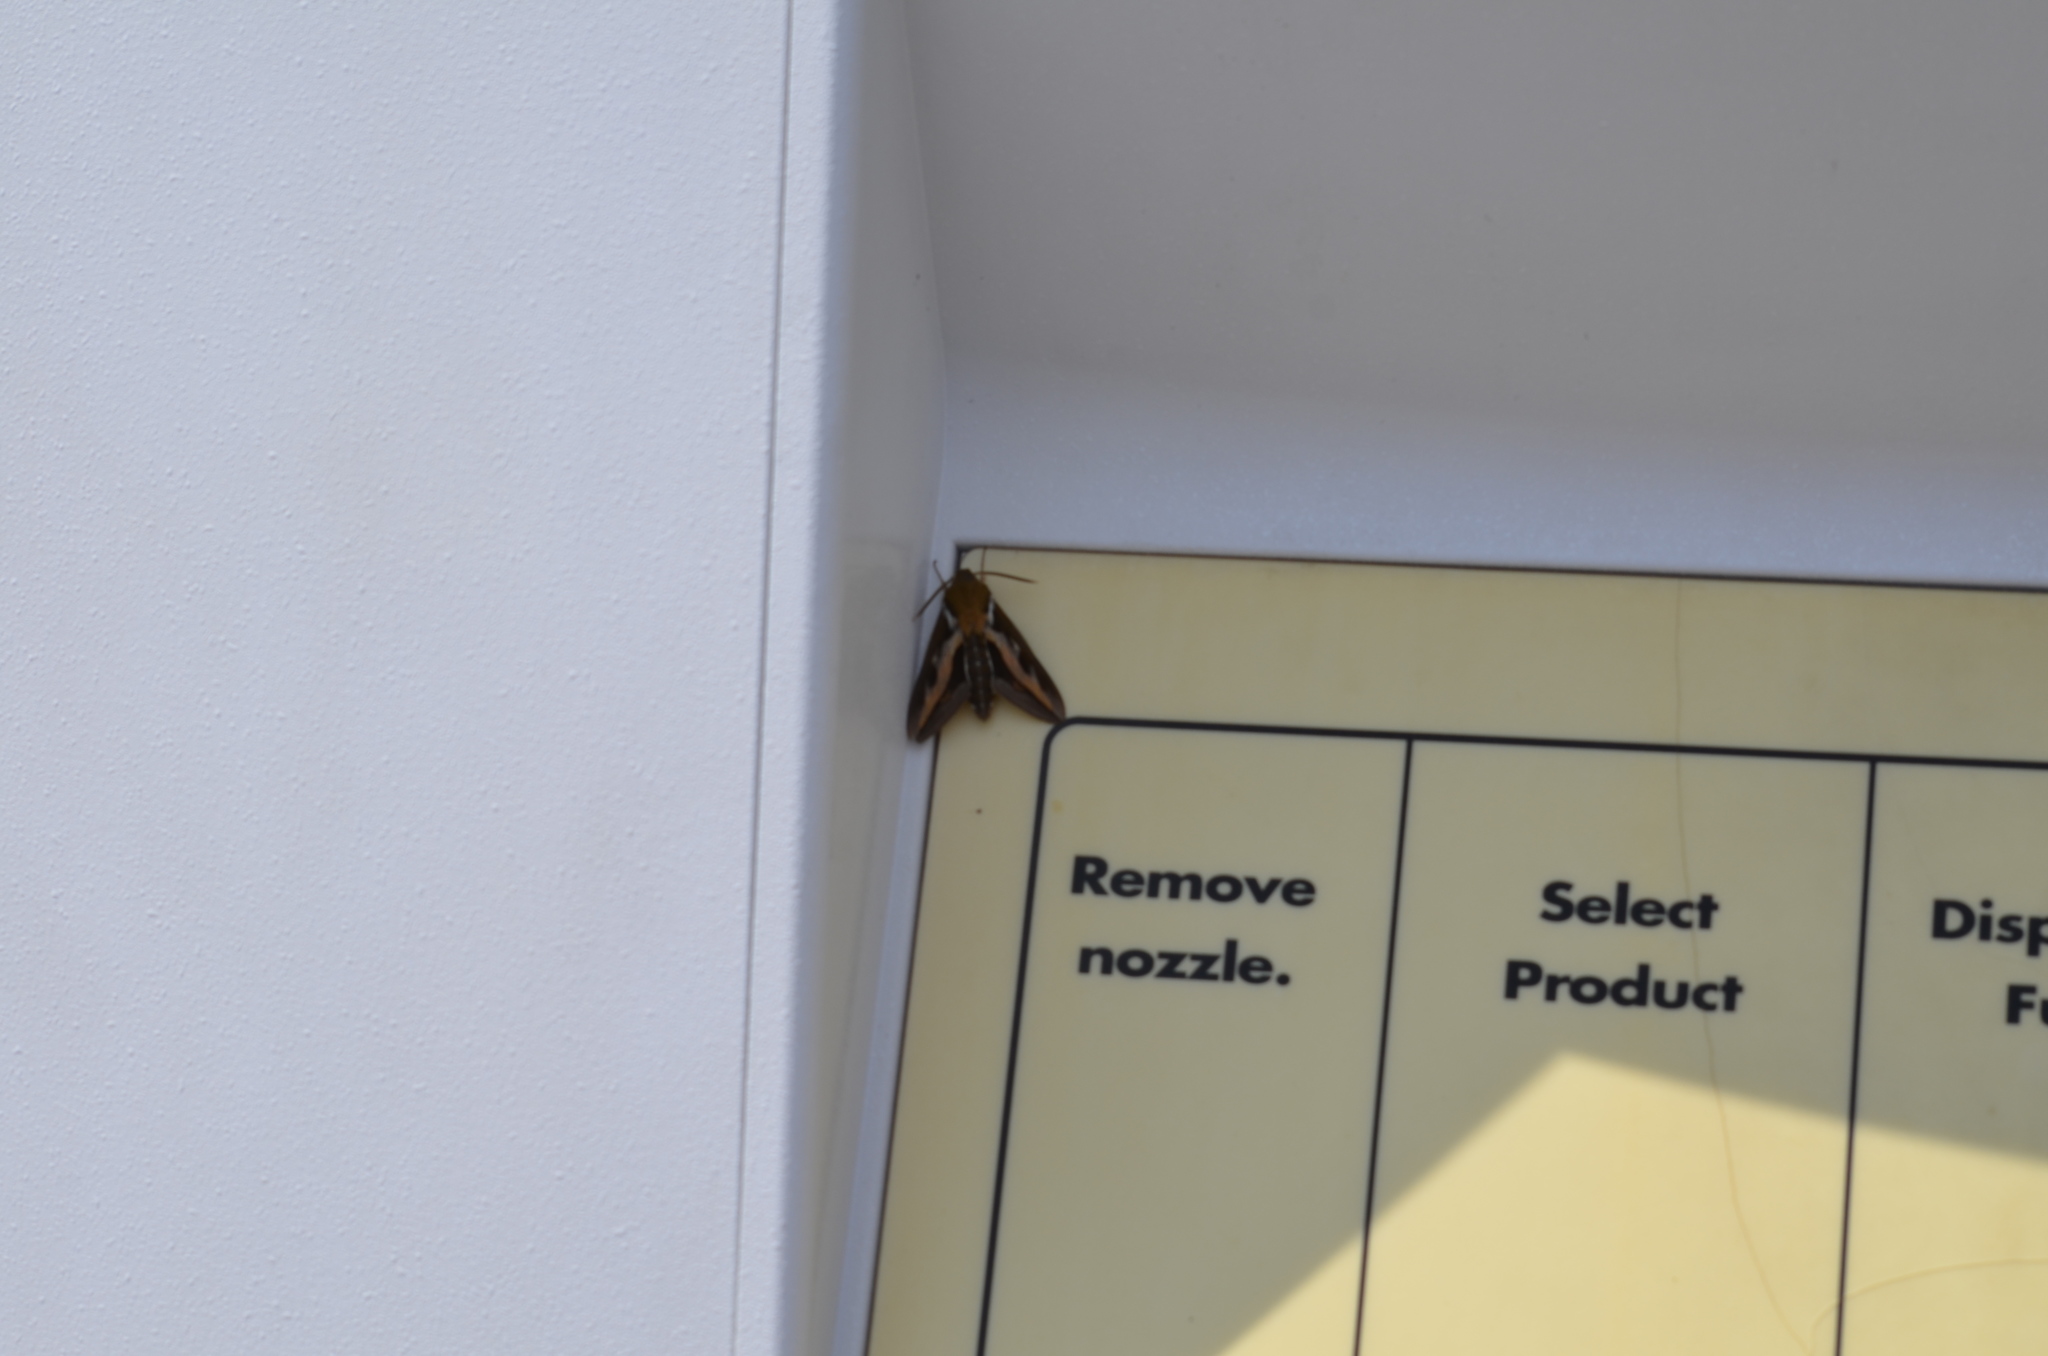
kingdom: Animalia
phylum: Arthropoda
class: Insecta
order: Lepidoptera
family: Sphingidae
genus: Hyles
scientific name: Hyles gallii
